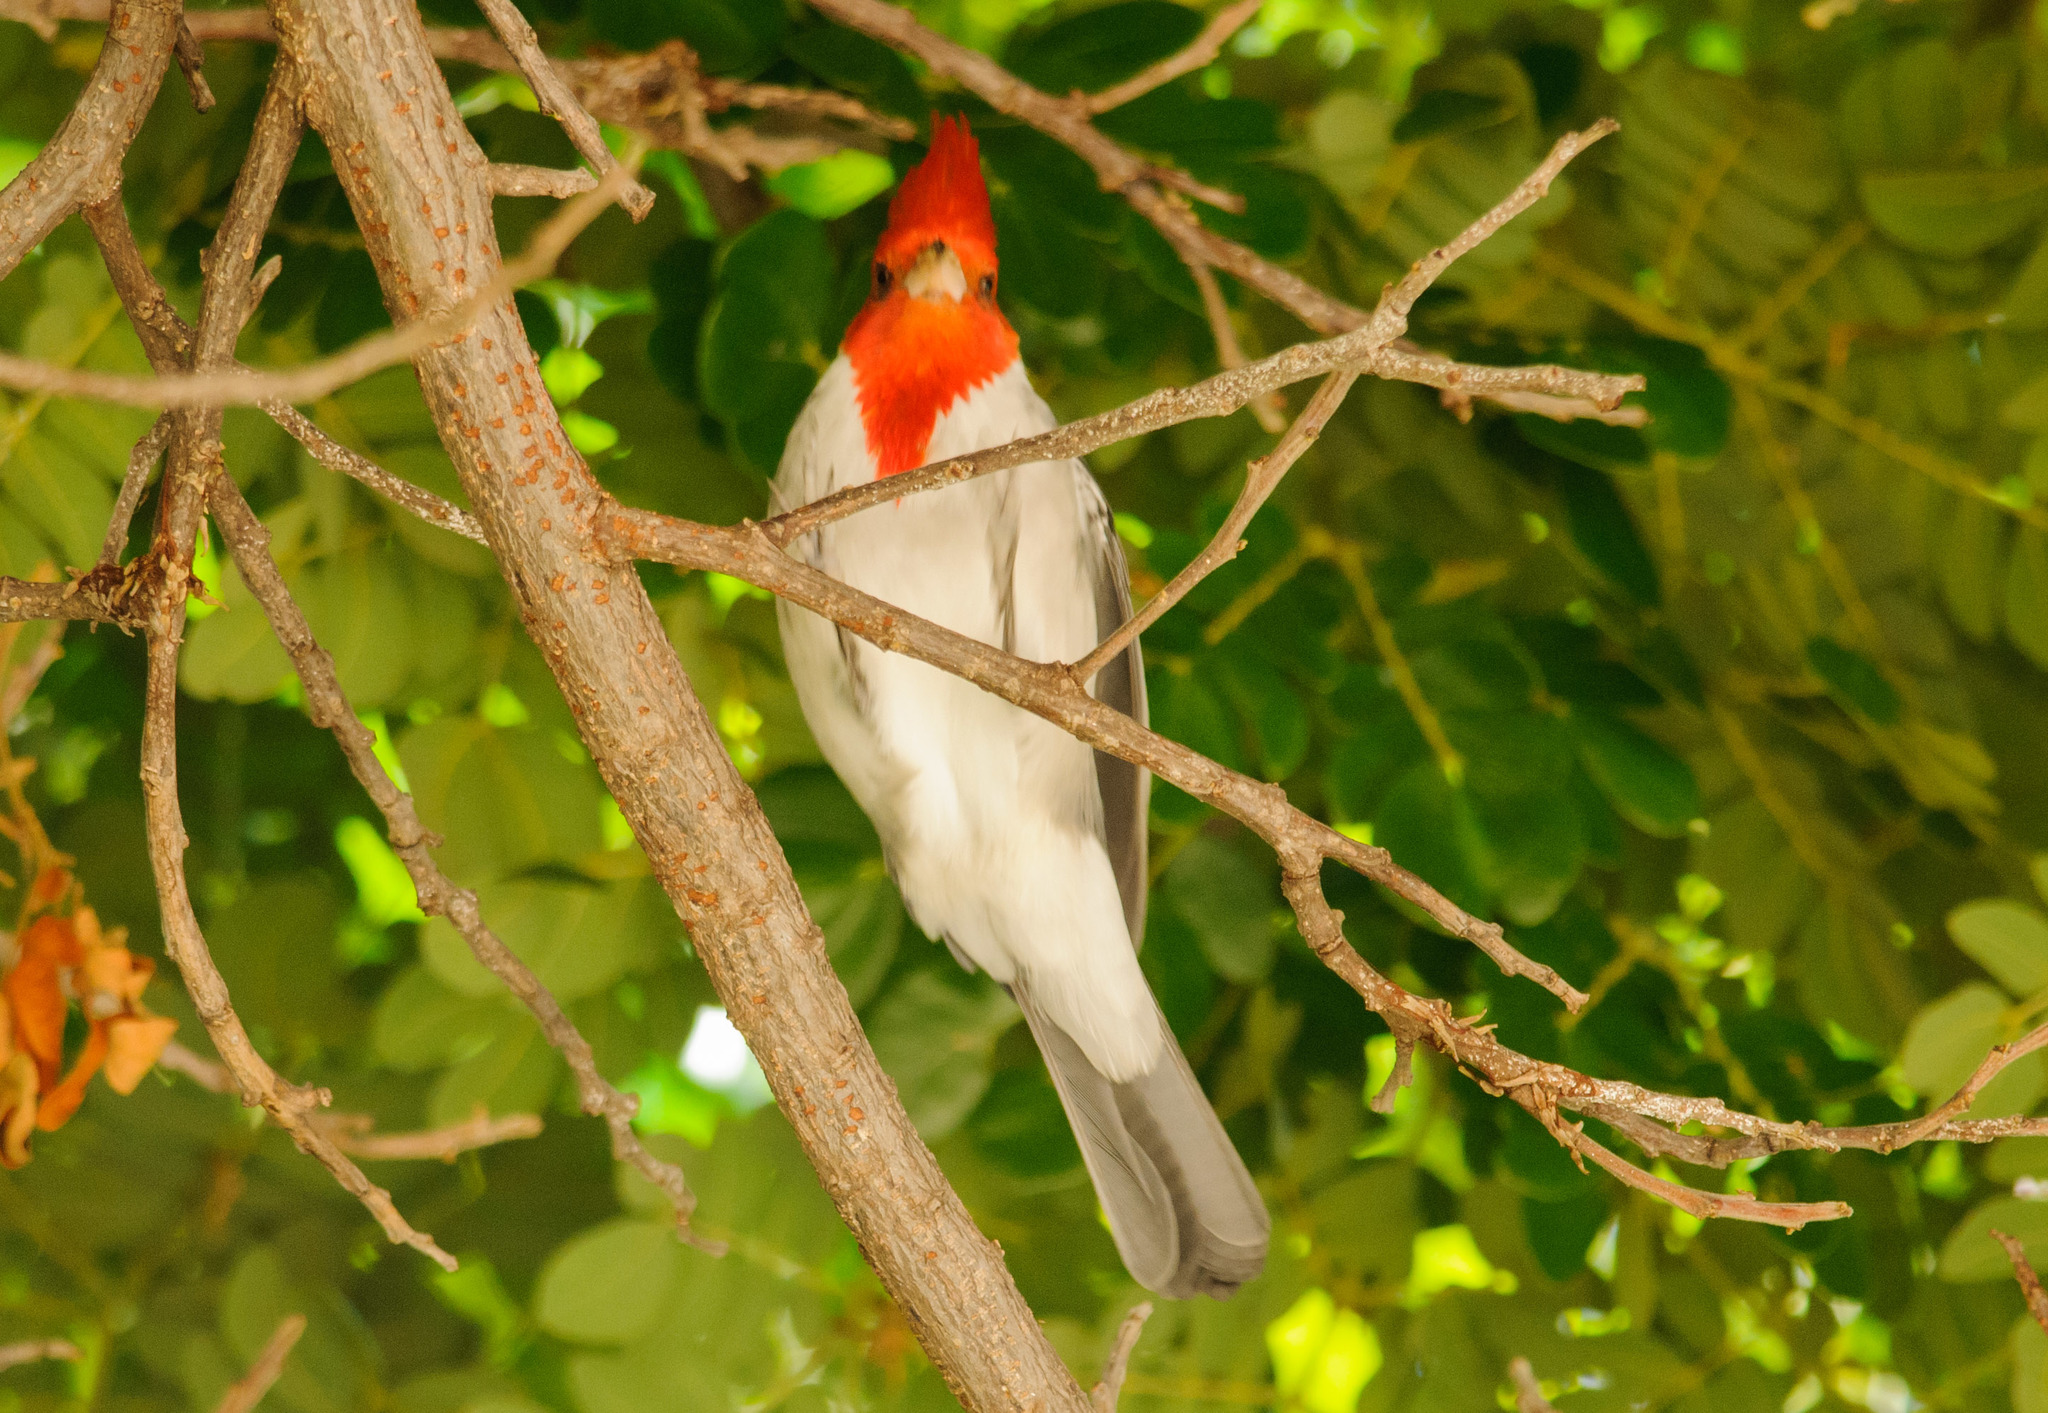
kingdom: Animalia
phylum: Chordata
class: Aves
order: Passeriformes
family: Thraupidae
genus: Paroaria
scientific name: Paroaria coronata
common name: Red-crested cardinal
